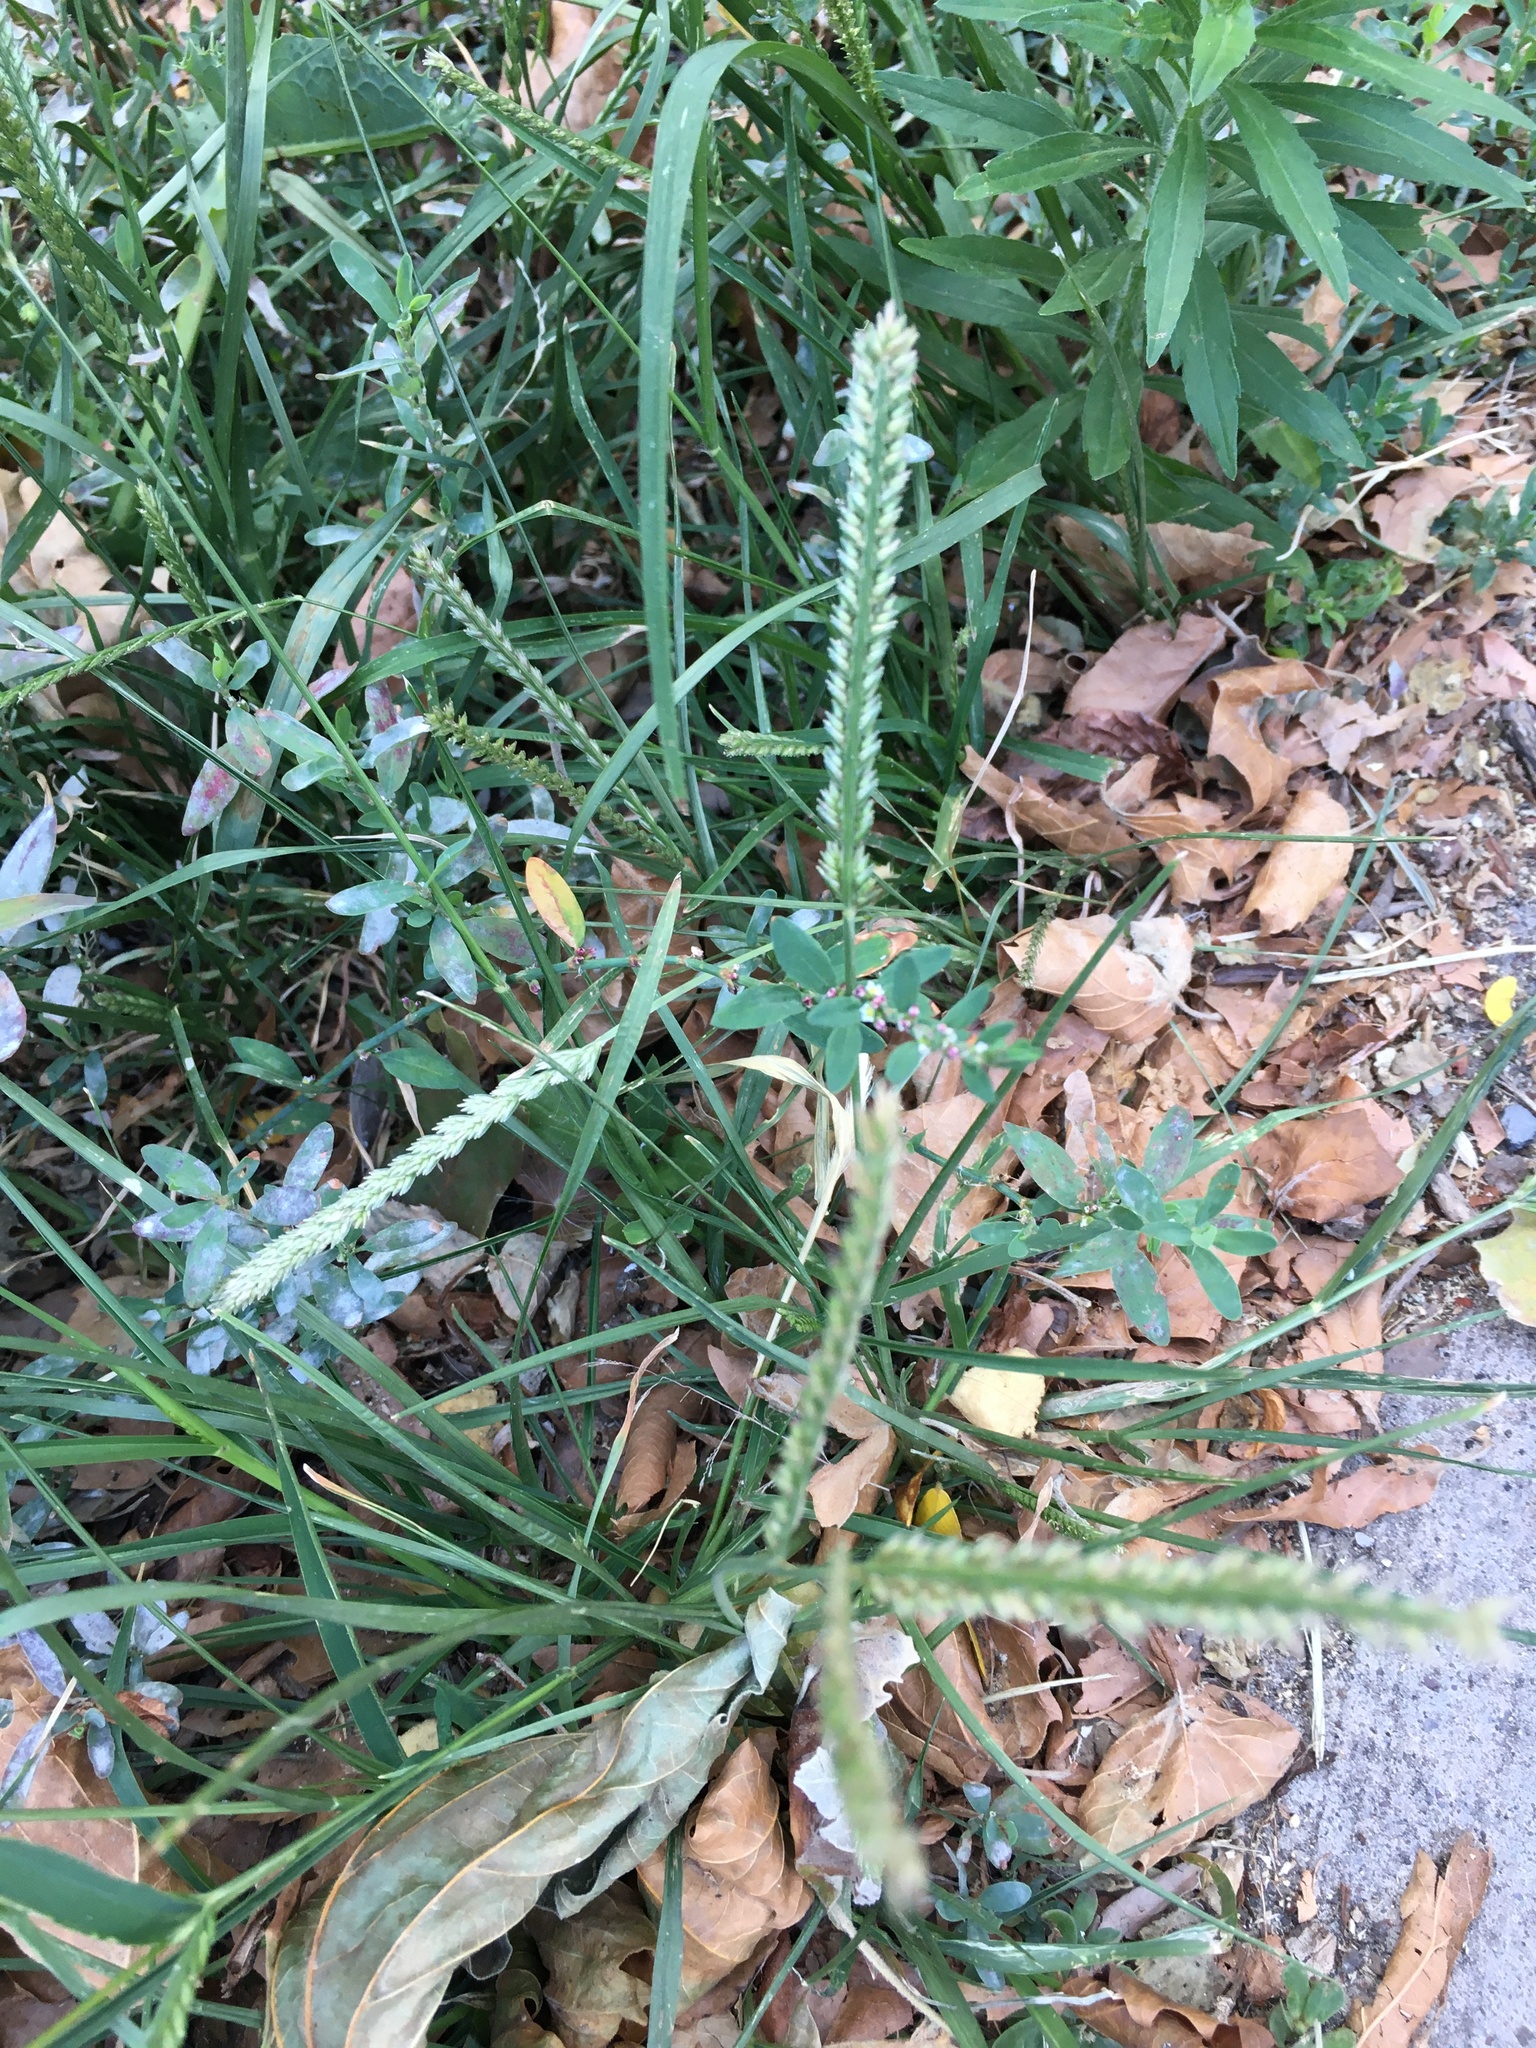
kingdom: Plantae
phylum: Tracheophyta
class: Liliopsida
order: Poales
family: Poaceae
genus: Eleusine
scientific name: Eleusine indica
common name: Yard-grass
